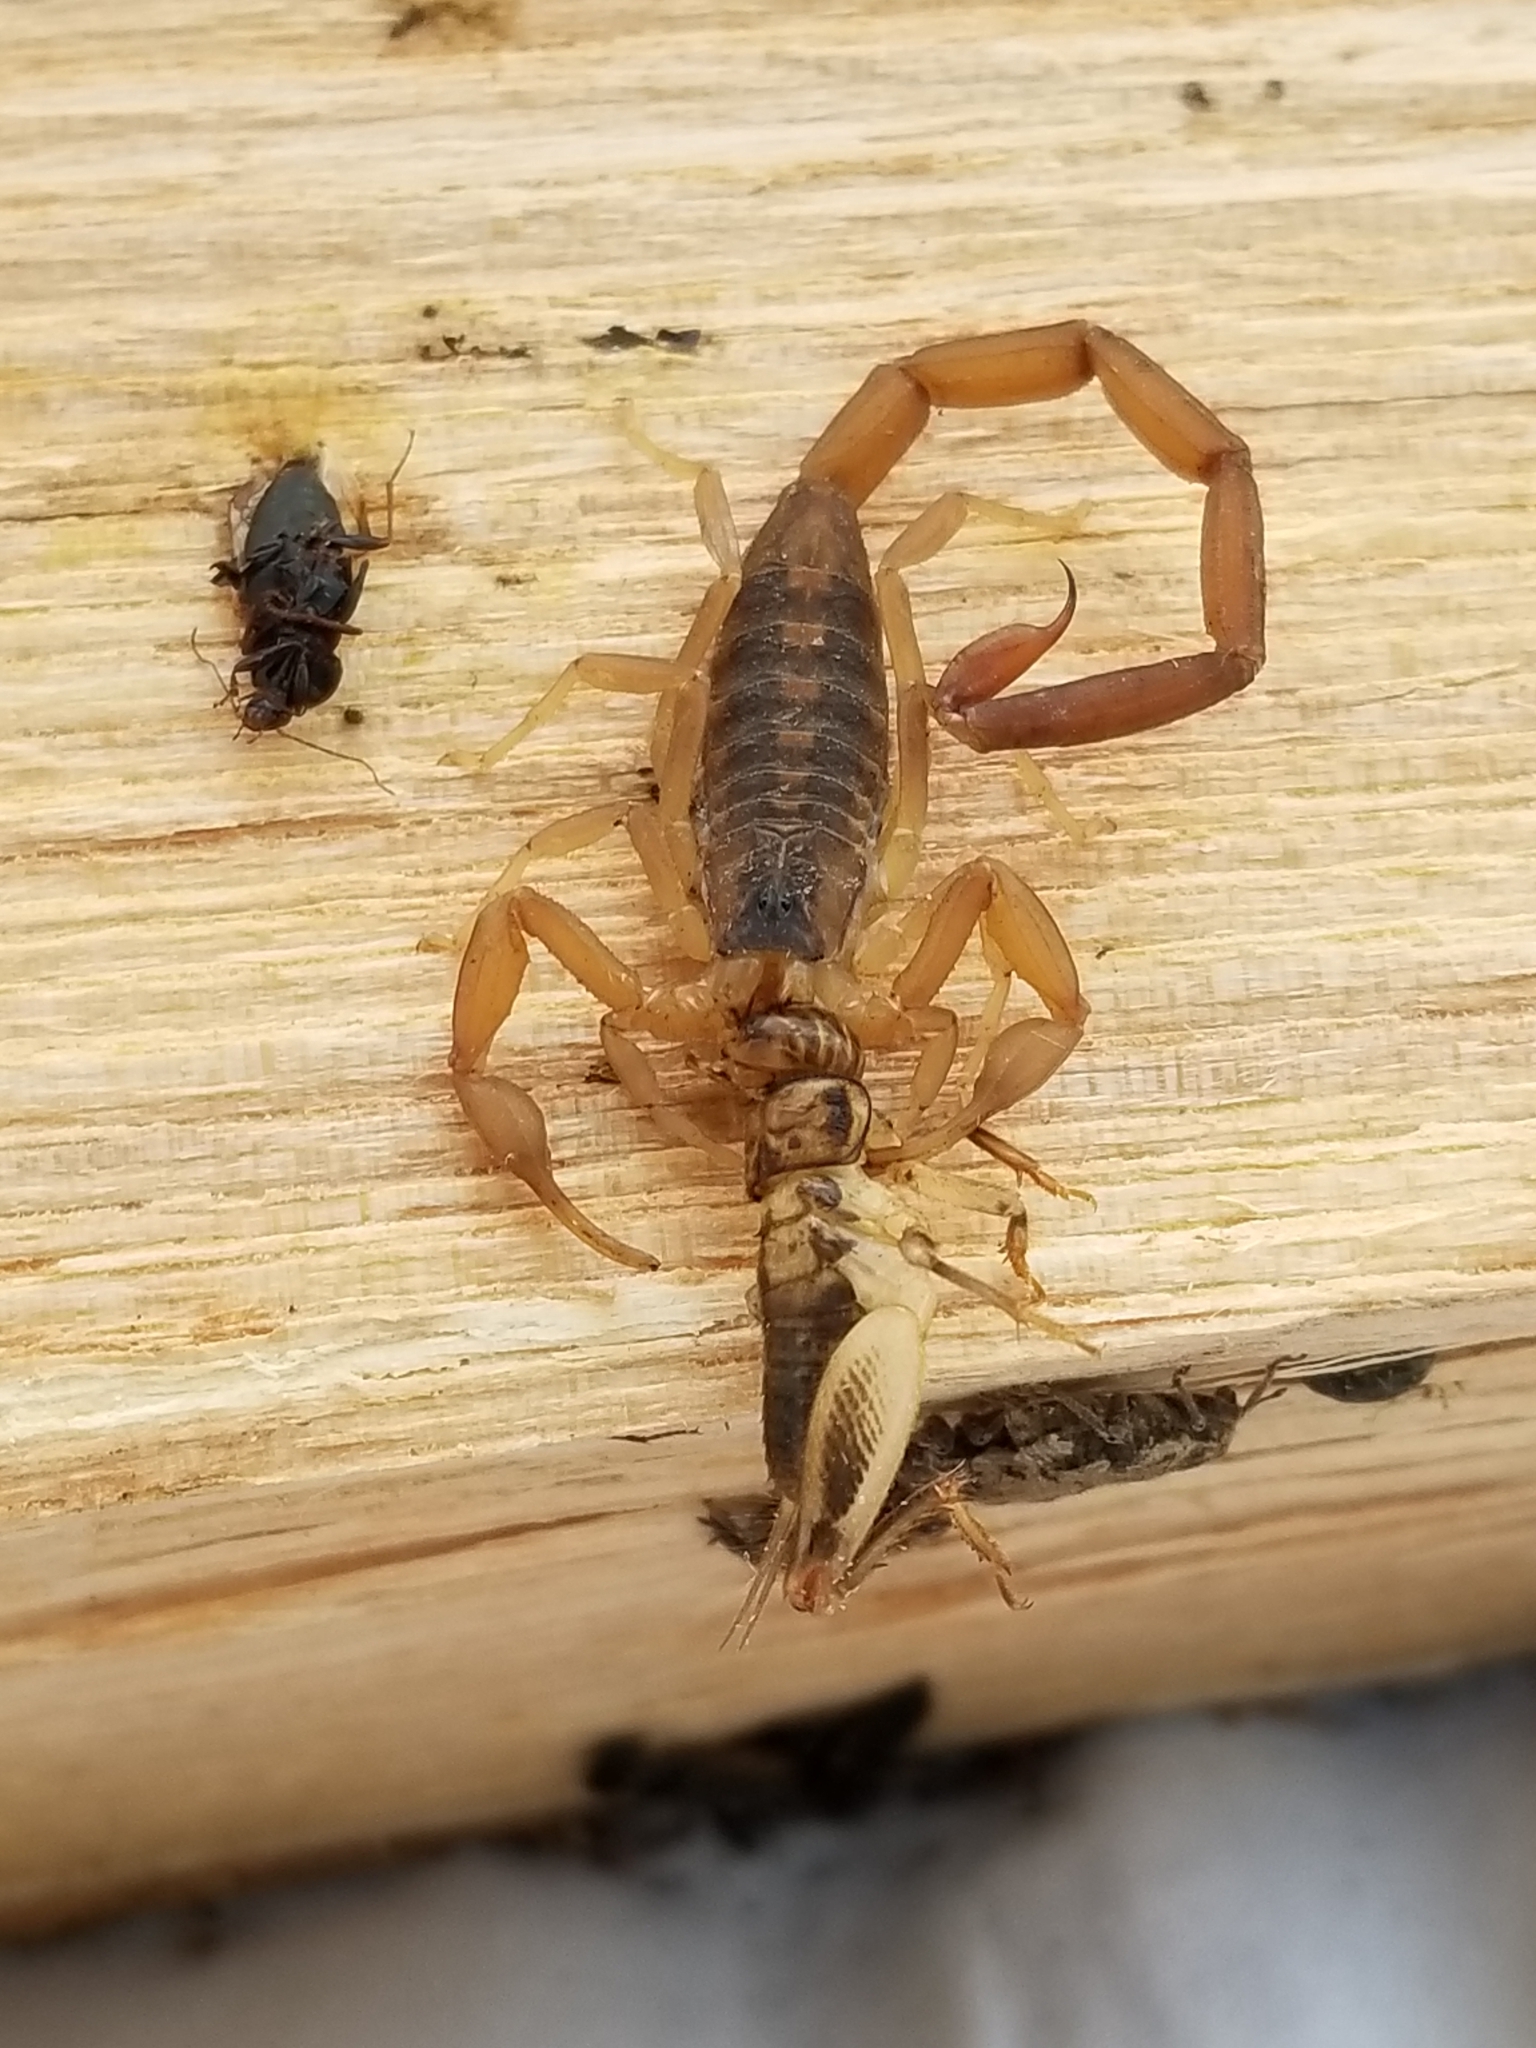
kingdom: Animalia
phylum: Arthropoda
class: Arachnida
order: Scorpiones
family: Buthidae
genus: Centruroides
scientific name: Centruroides vittatus
